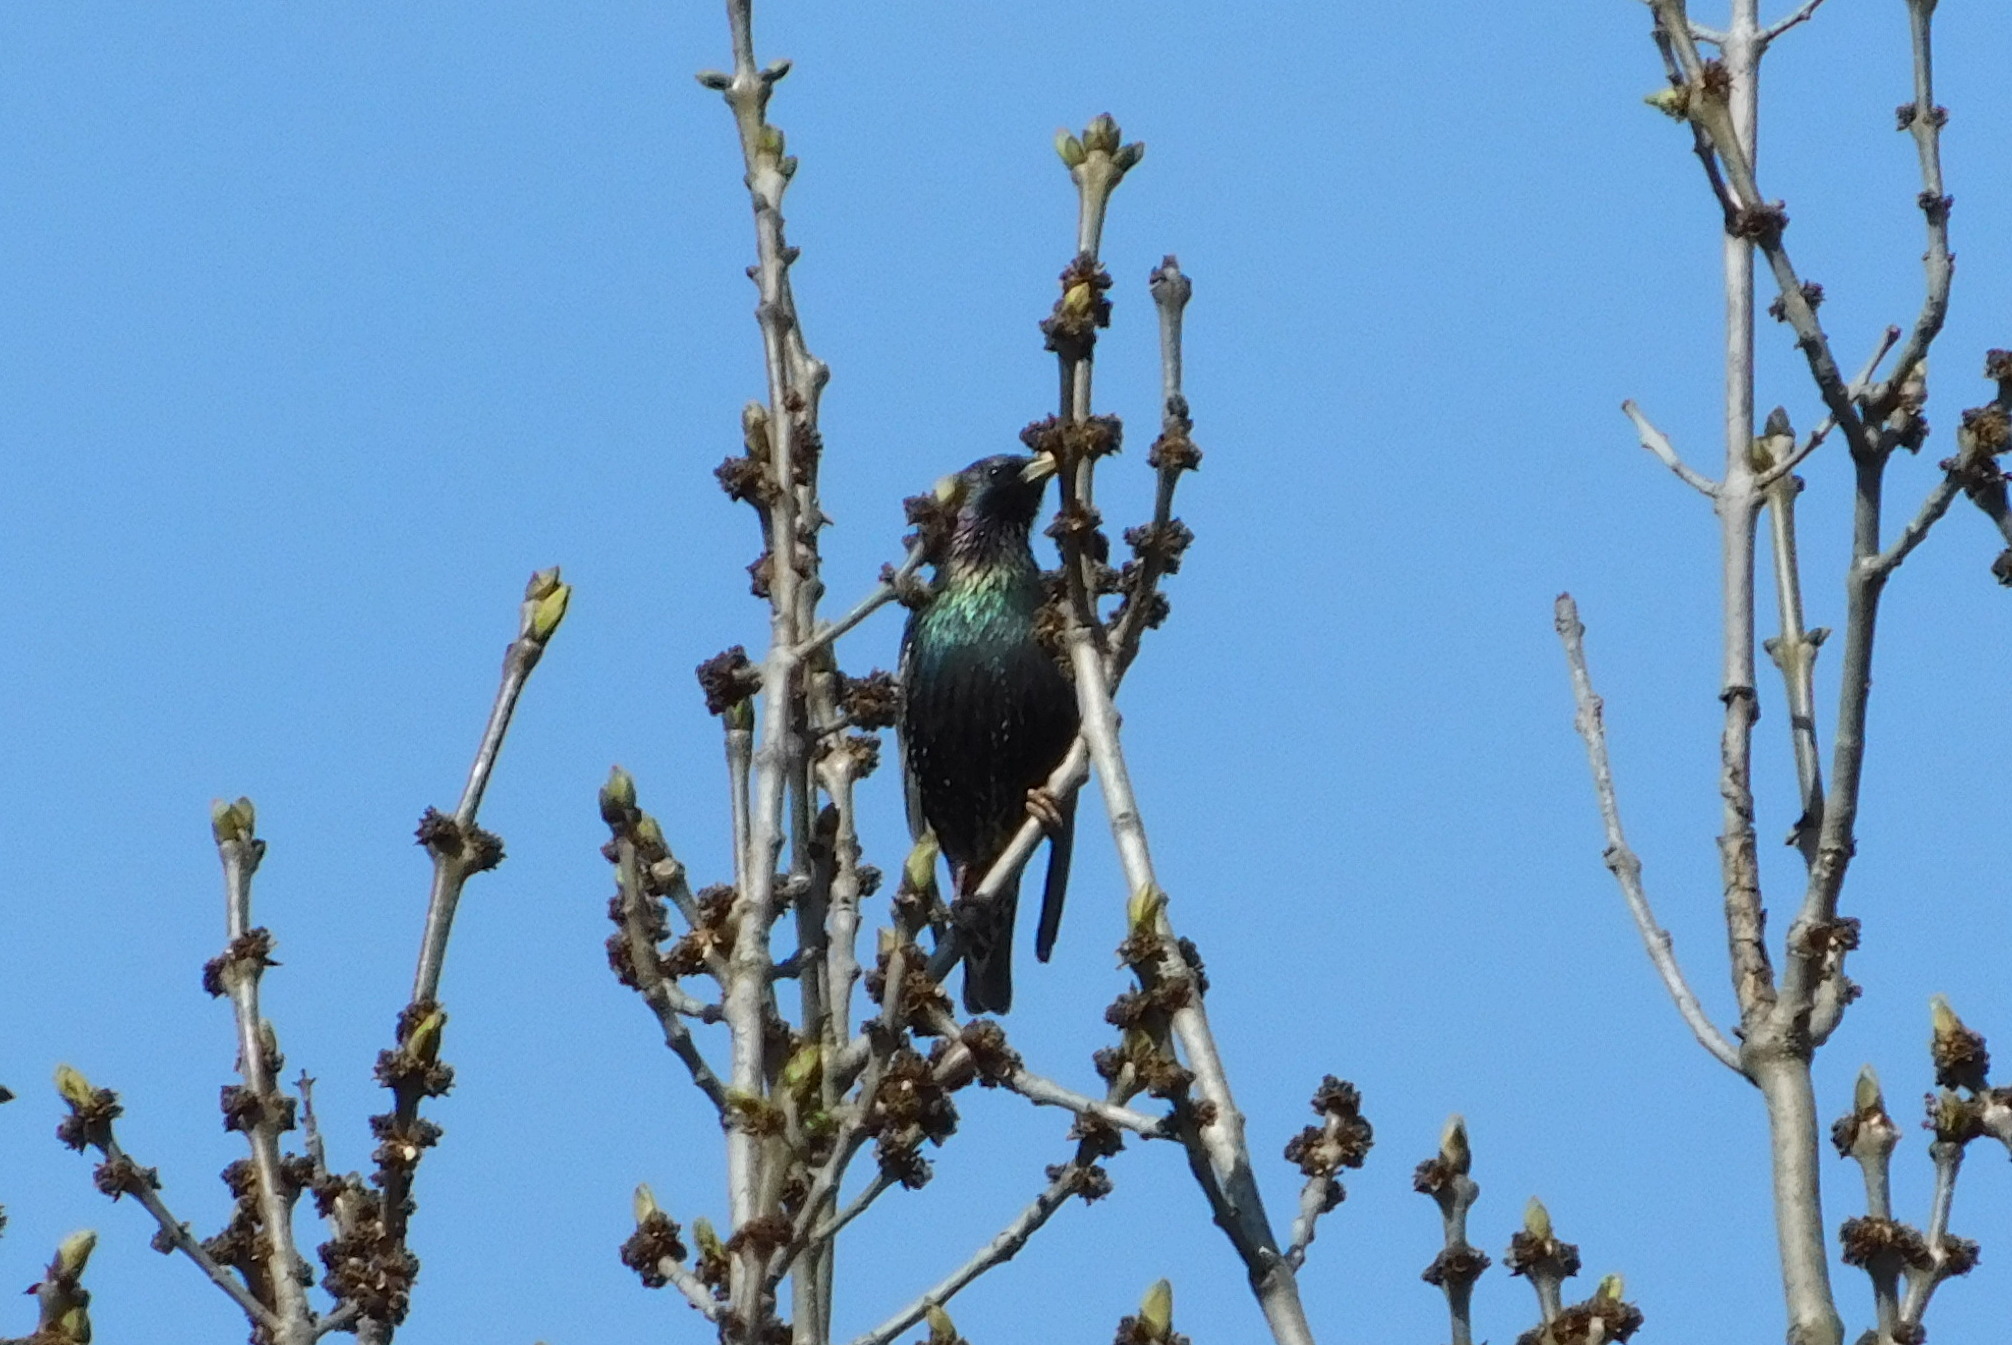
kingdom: Animalia
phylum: Chordata
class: Aves
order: Passeriformes
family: Sturnidae
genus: Sturnus
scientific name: Sturnus vulgaris
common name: Common starling
